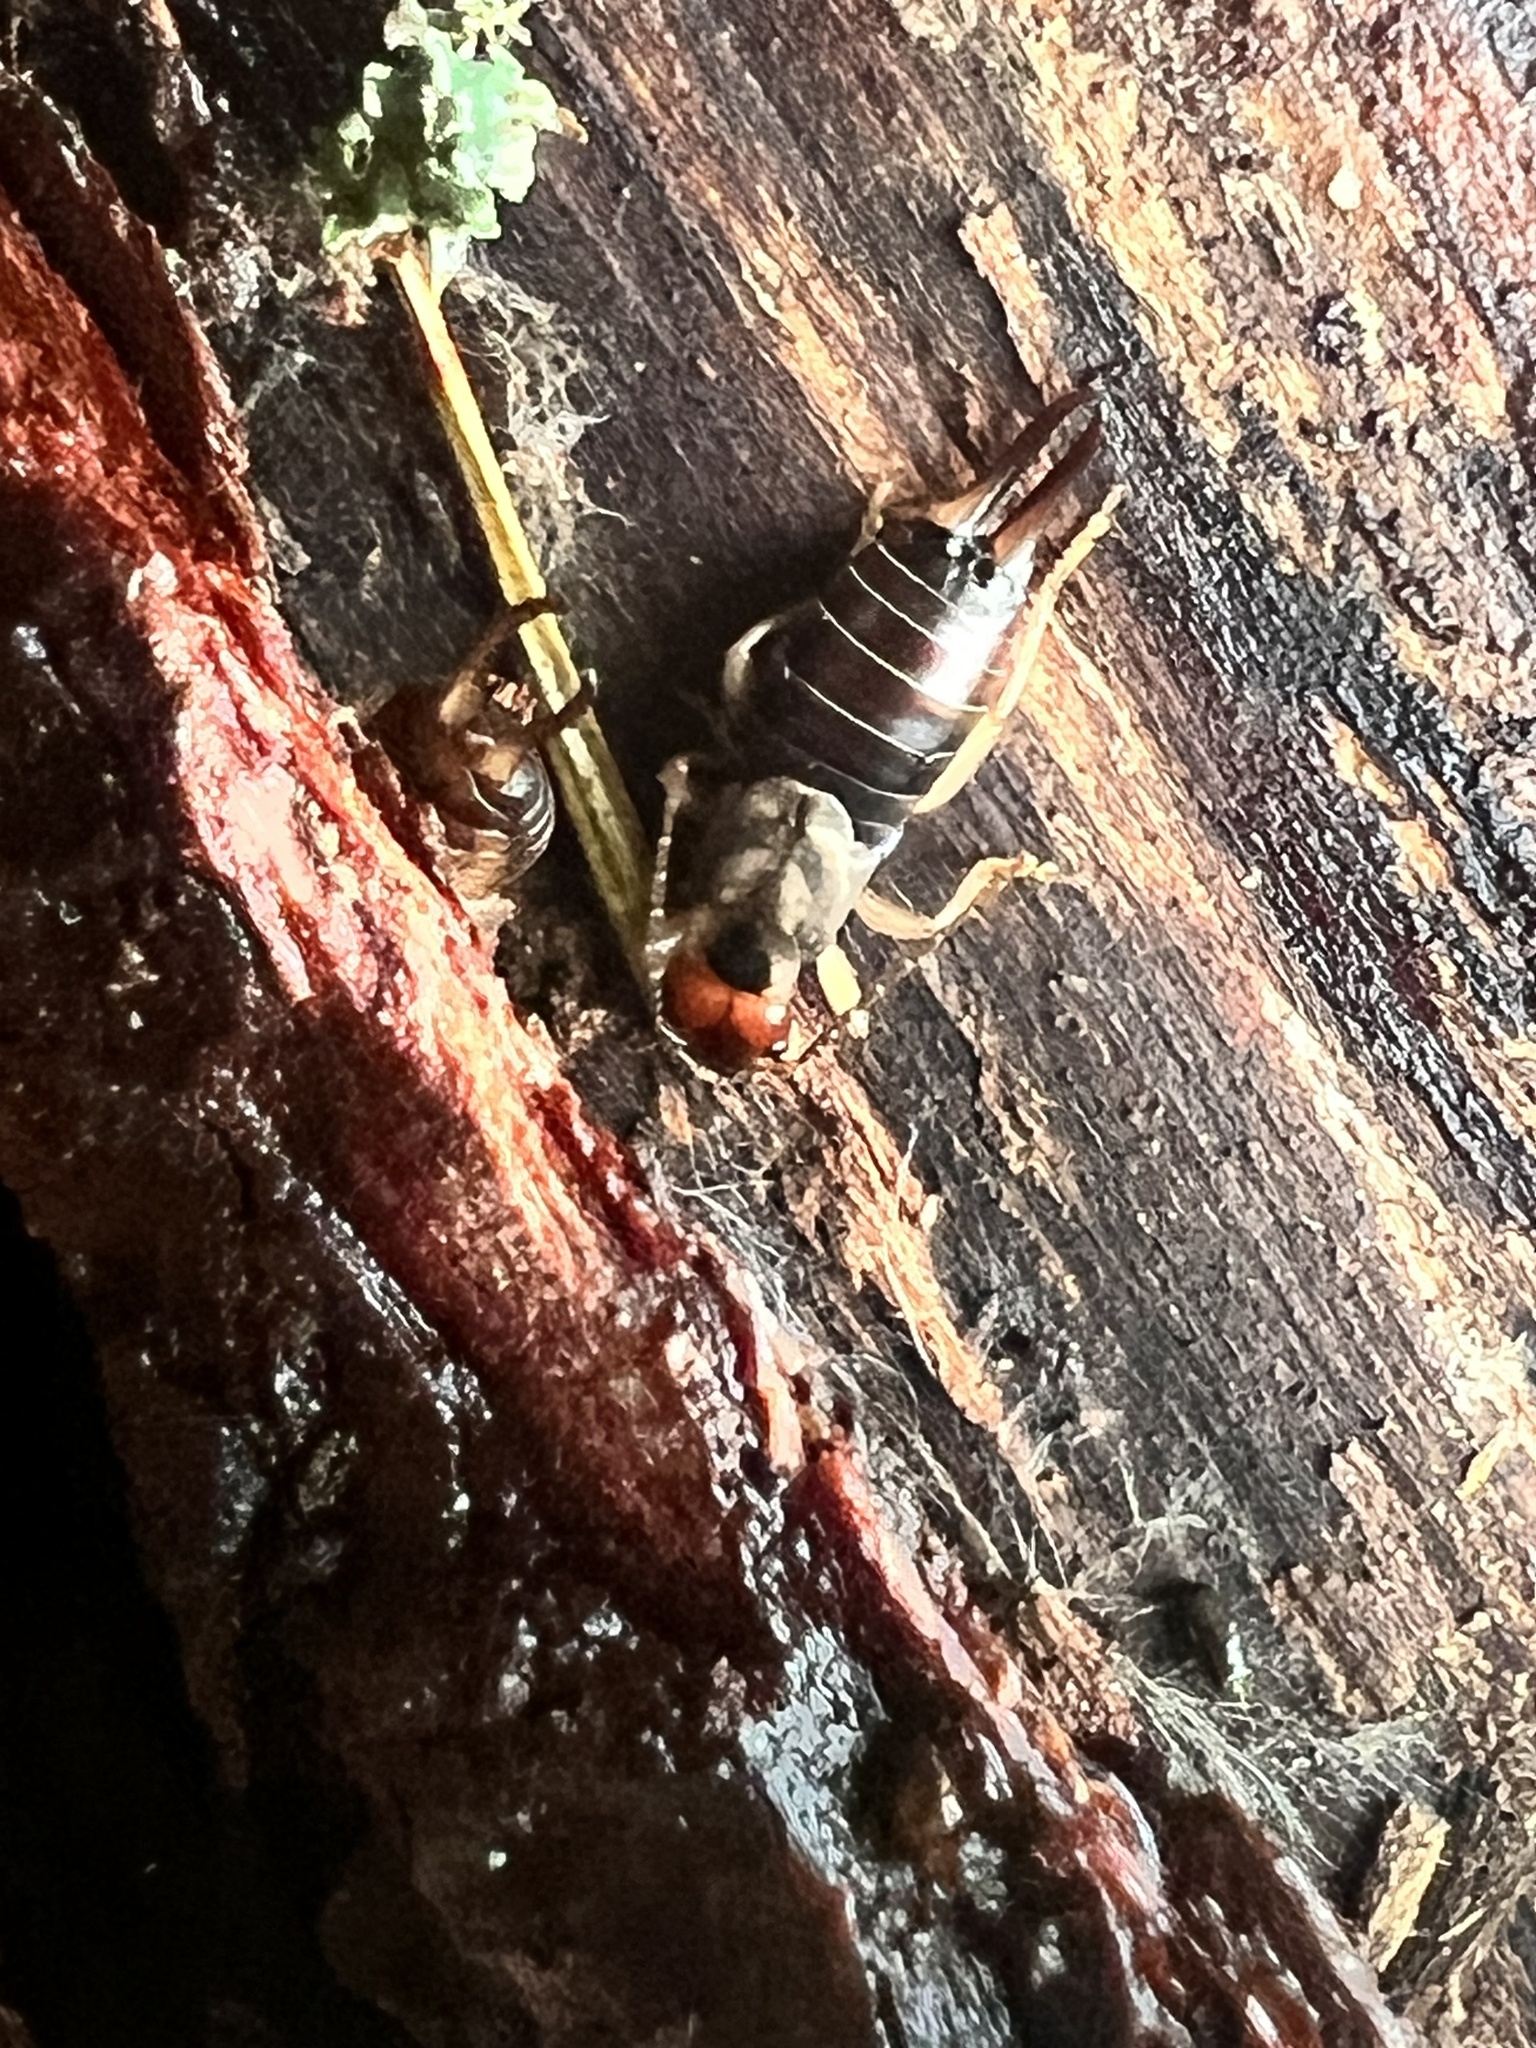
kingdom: Animalia
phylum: Arthropoda
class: Insecta
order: Dermaptera
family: Forficulidae
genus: Forficula
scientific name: Forficula dentata
